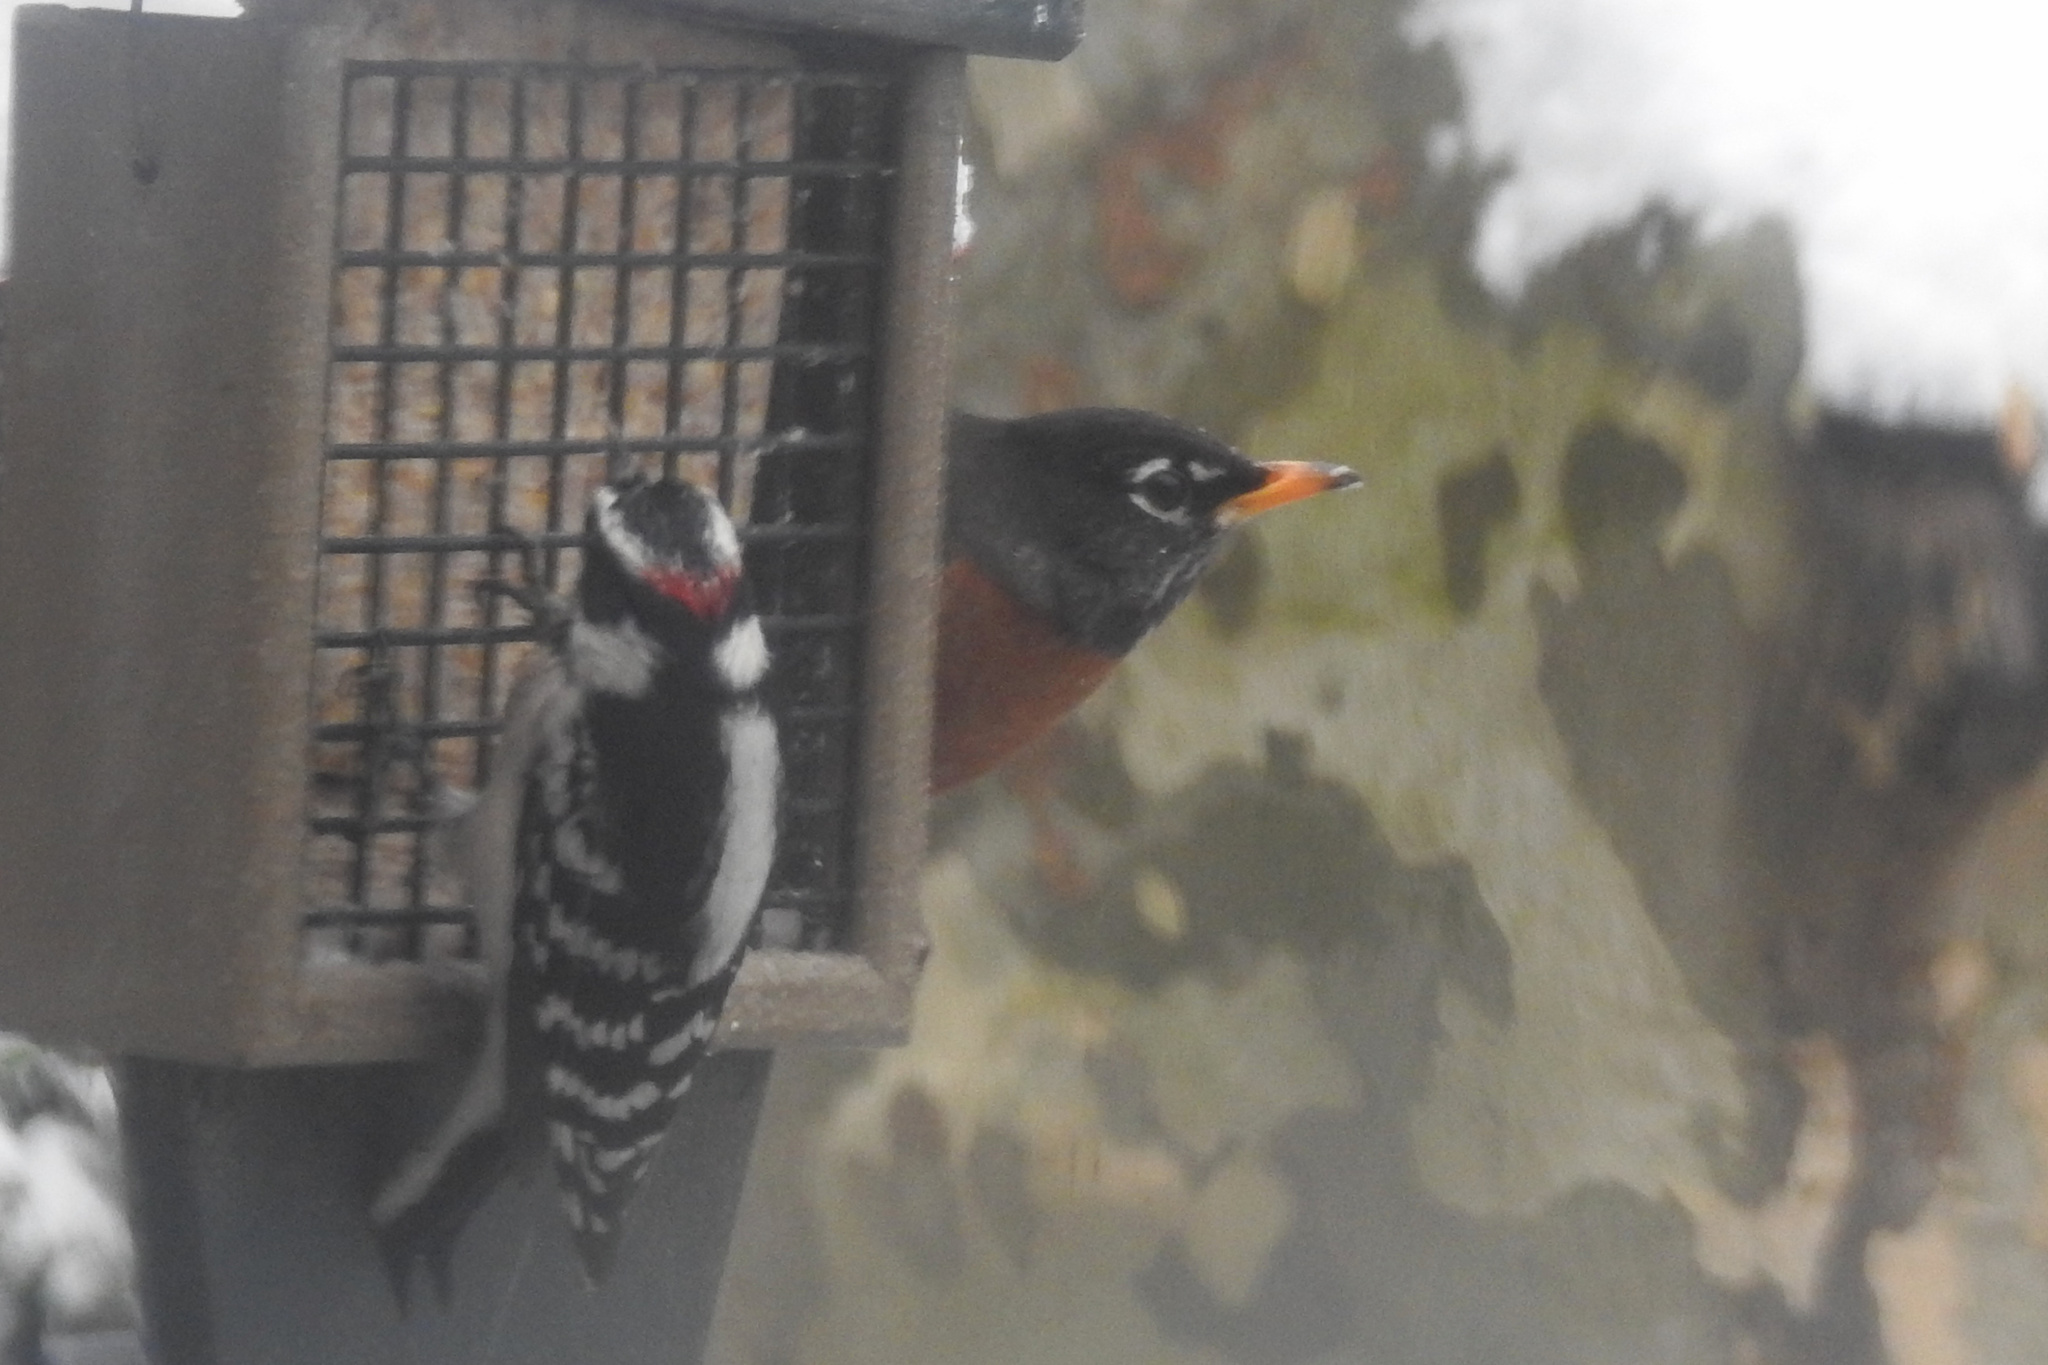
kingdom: Animalia
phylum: Chordata
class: Aves
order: Passeriformes
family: Turdidae
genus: Turdus
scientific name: Turdus migratorius
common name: American robin
